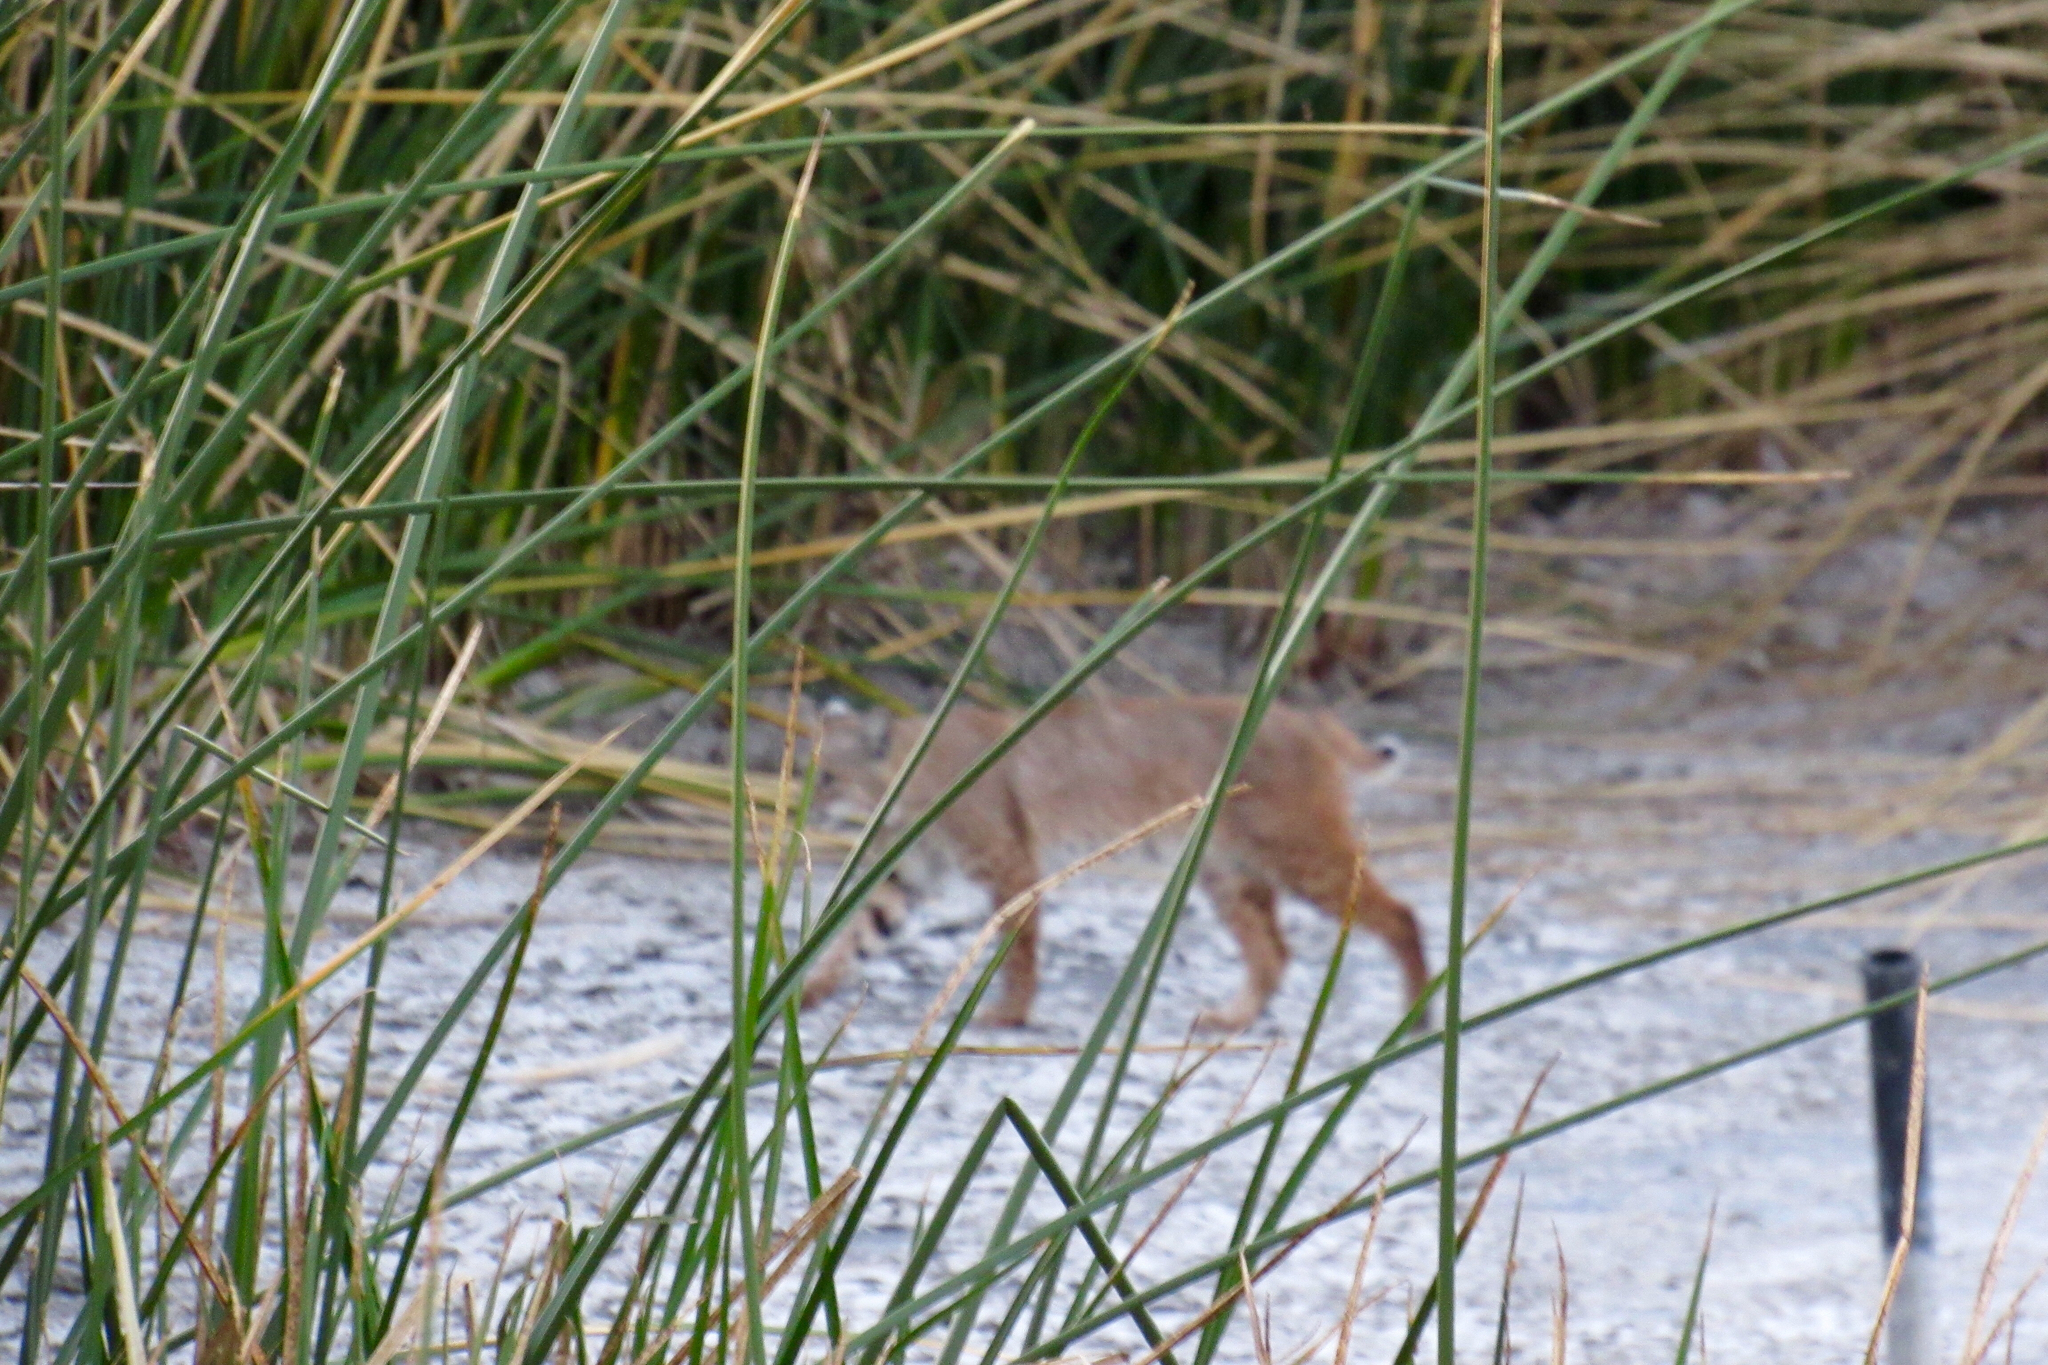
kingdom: Animalia
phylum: Chordata
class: Mammalia
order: Carnivora
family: Felidae
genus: Lynx
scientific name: Lynx rufus
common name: Bobcat
